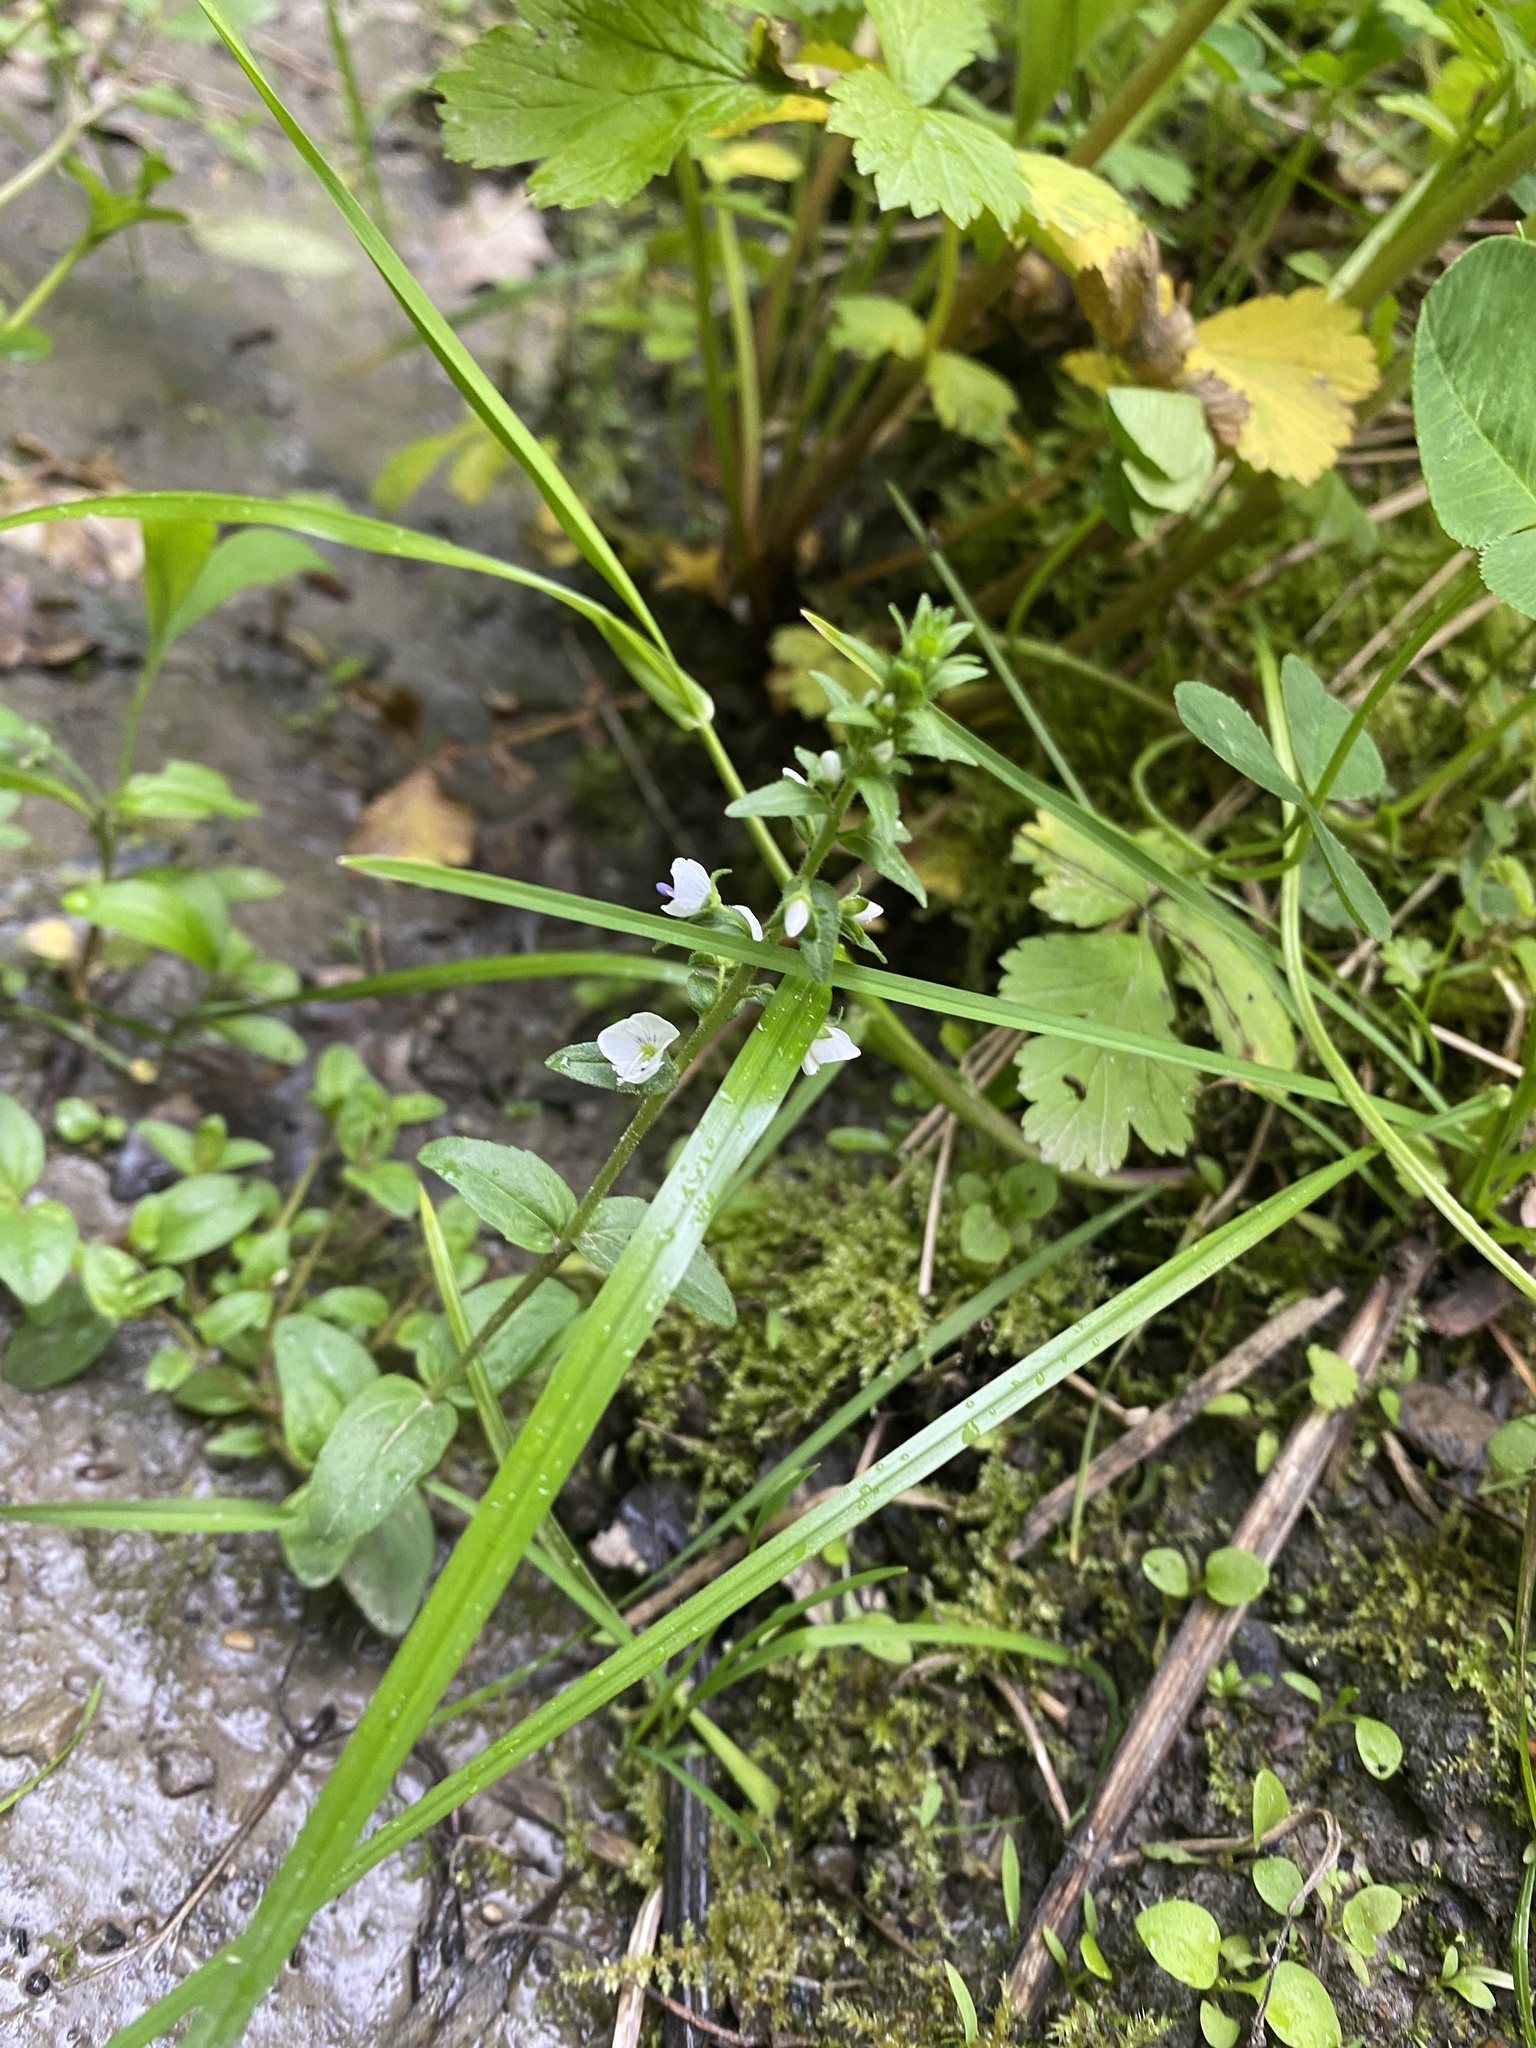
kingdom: Plantae
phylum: Tracheophyta
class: Magnoliopsida
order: Lamiales
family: Plantaginaceae
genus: Veronica
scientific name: Veronica serpyllifolia
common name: Thyme-leaved speedwell
